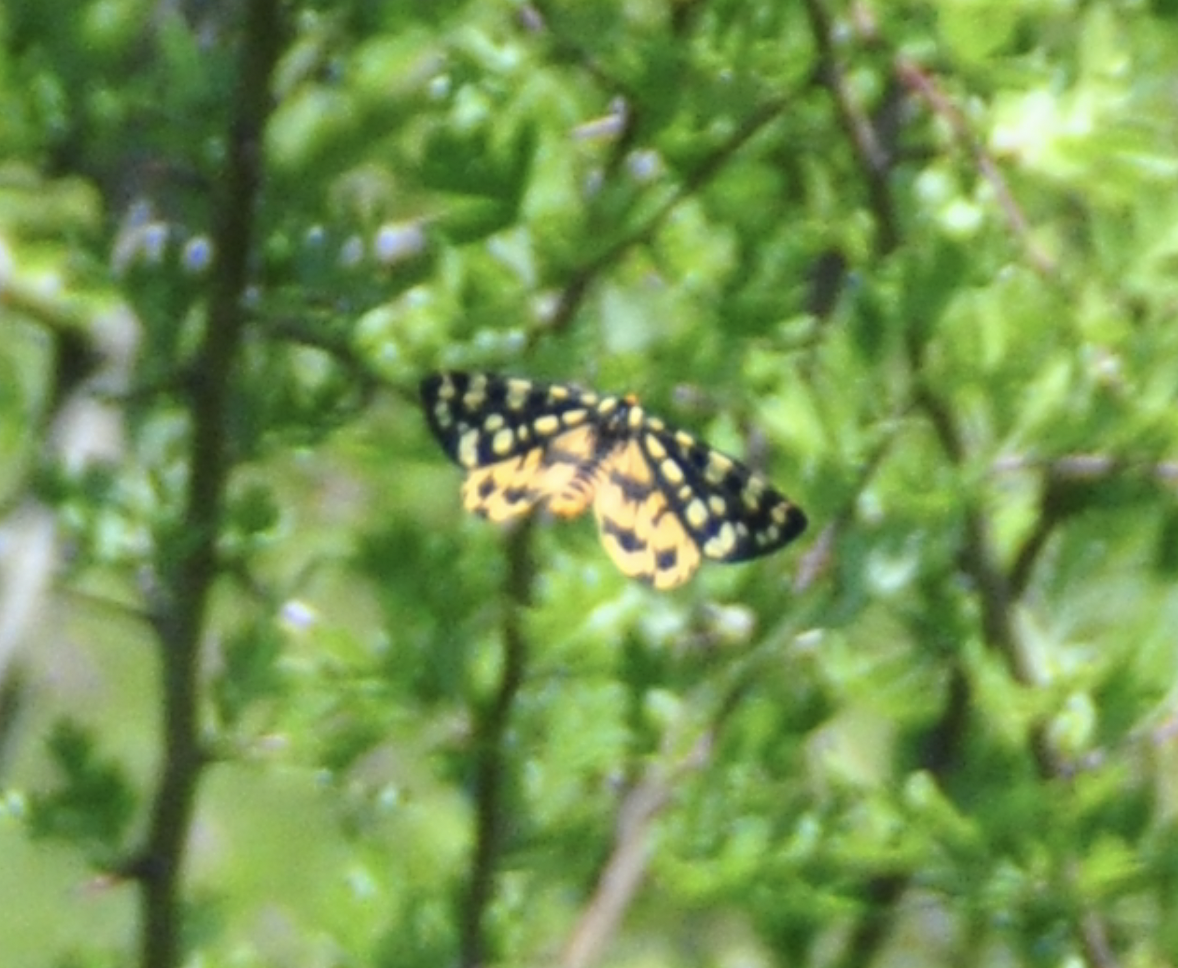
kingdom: Animalia
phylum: Arthropoda
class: Insecta
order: Lepidoptera
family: Erebidae
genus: Arctia
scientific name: Arctia tigrina
